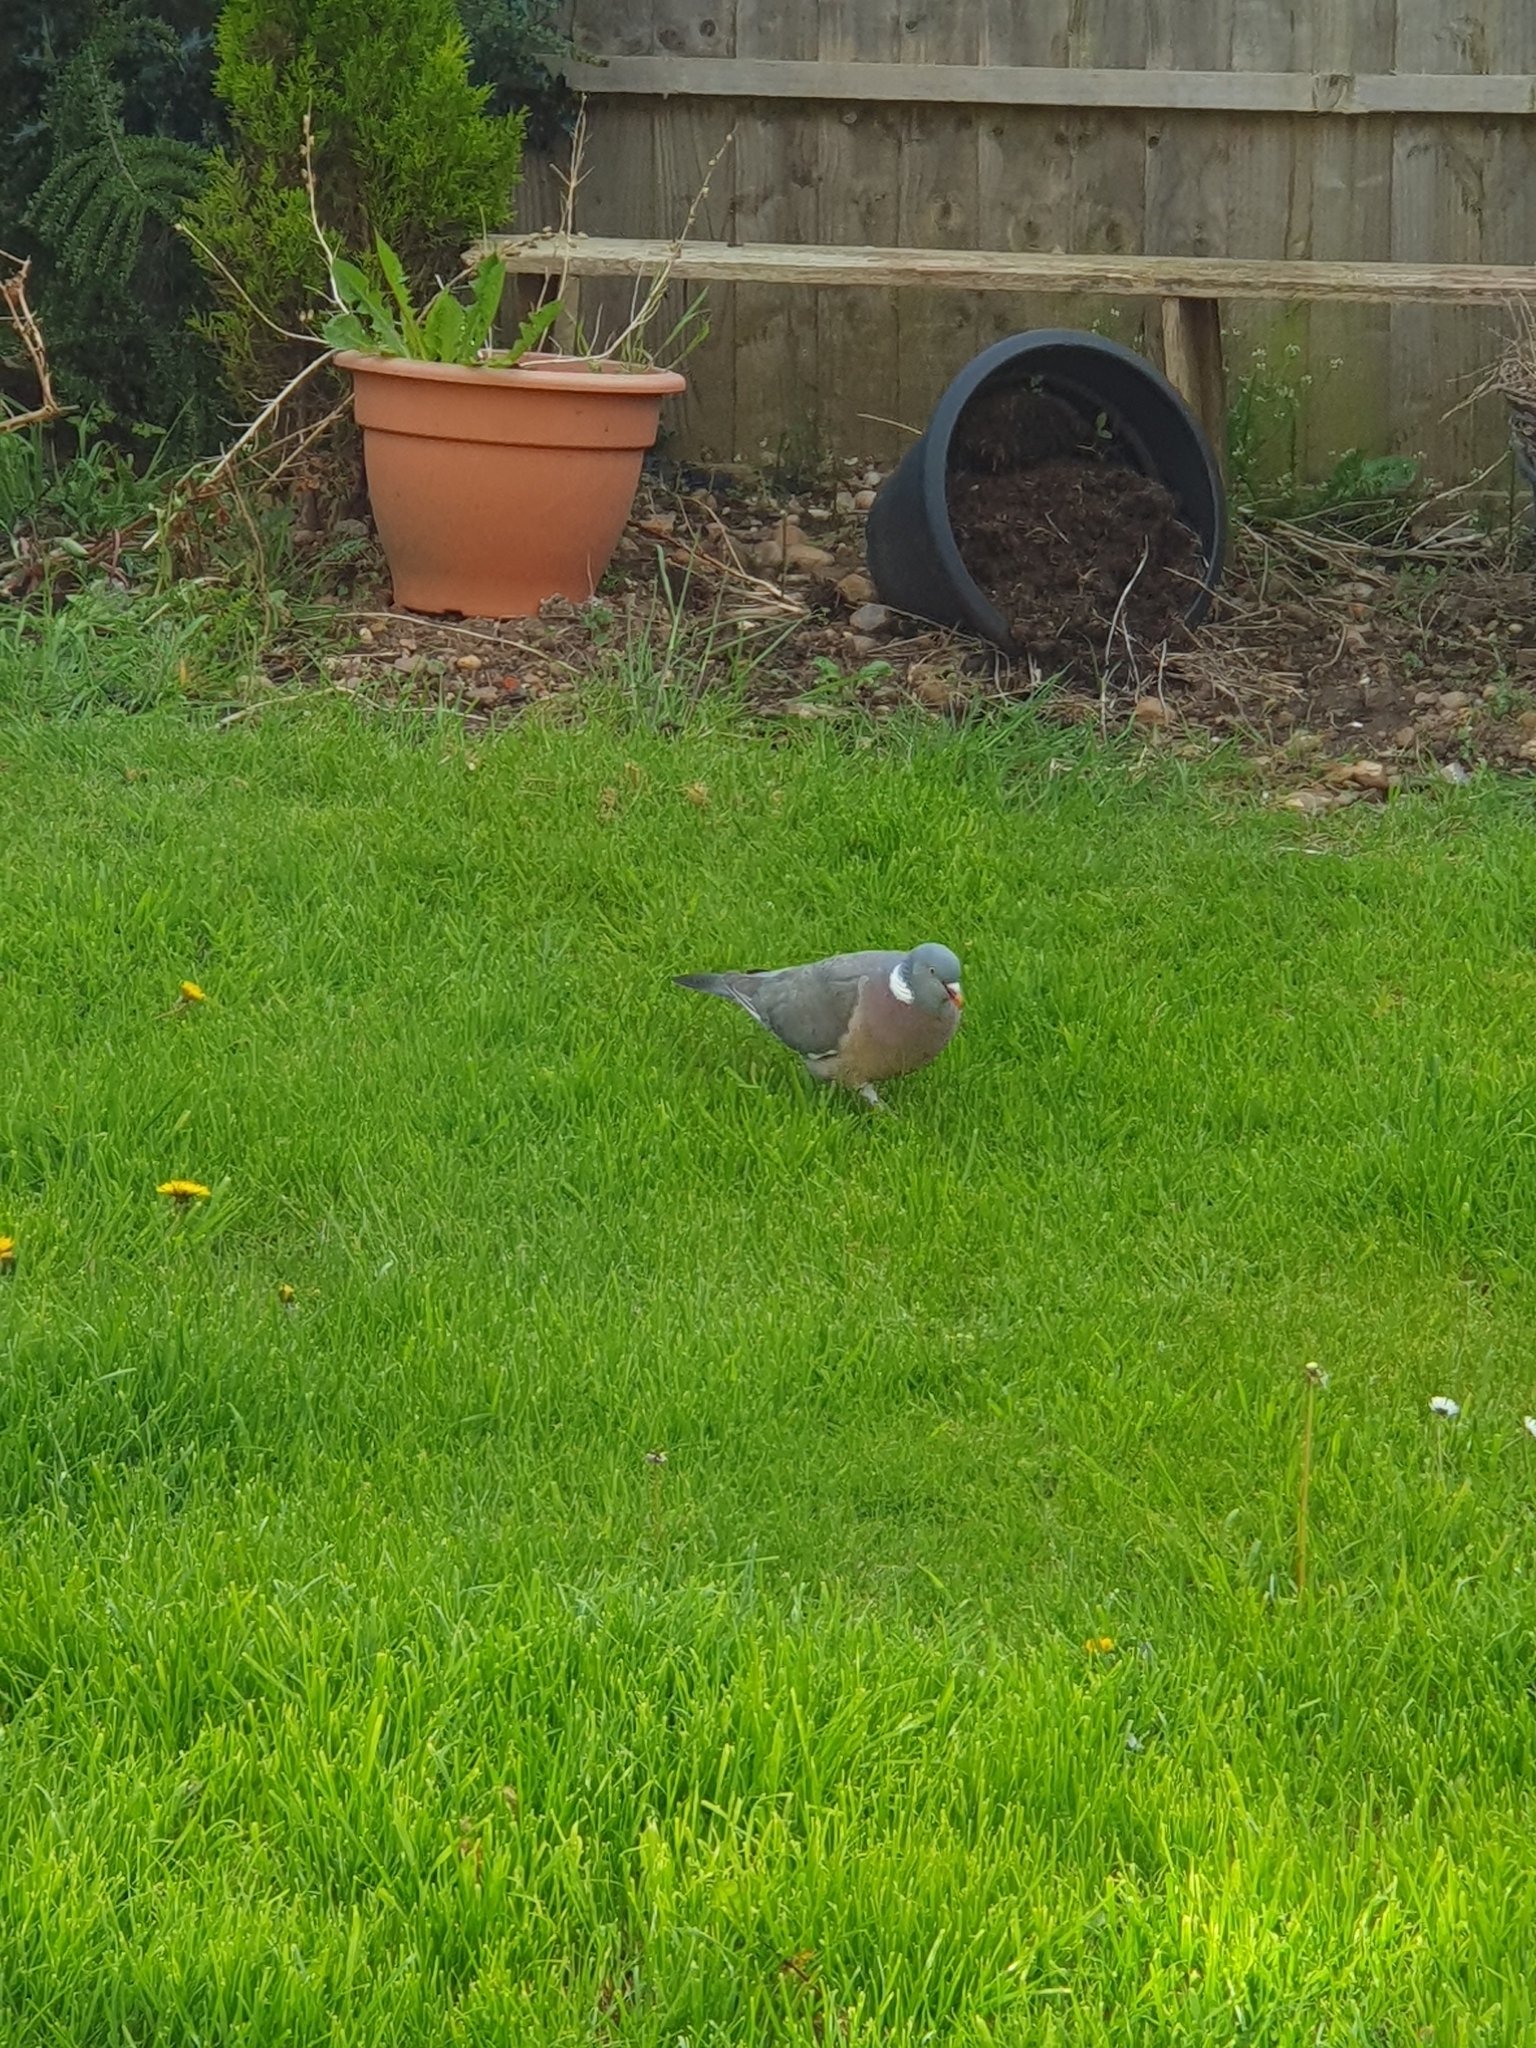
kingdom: Animalia
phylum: Chordata
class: Aves
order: Columbiformes
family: Columbidae
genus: Columba
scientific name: Columba palumbus
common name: Common wood pigeon
